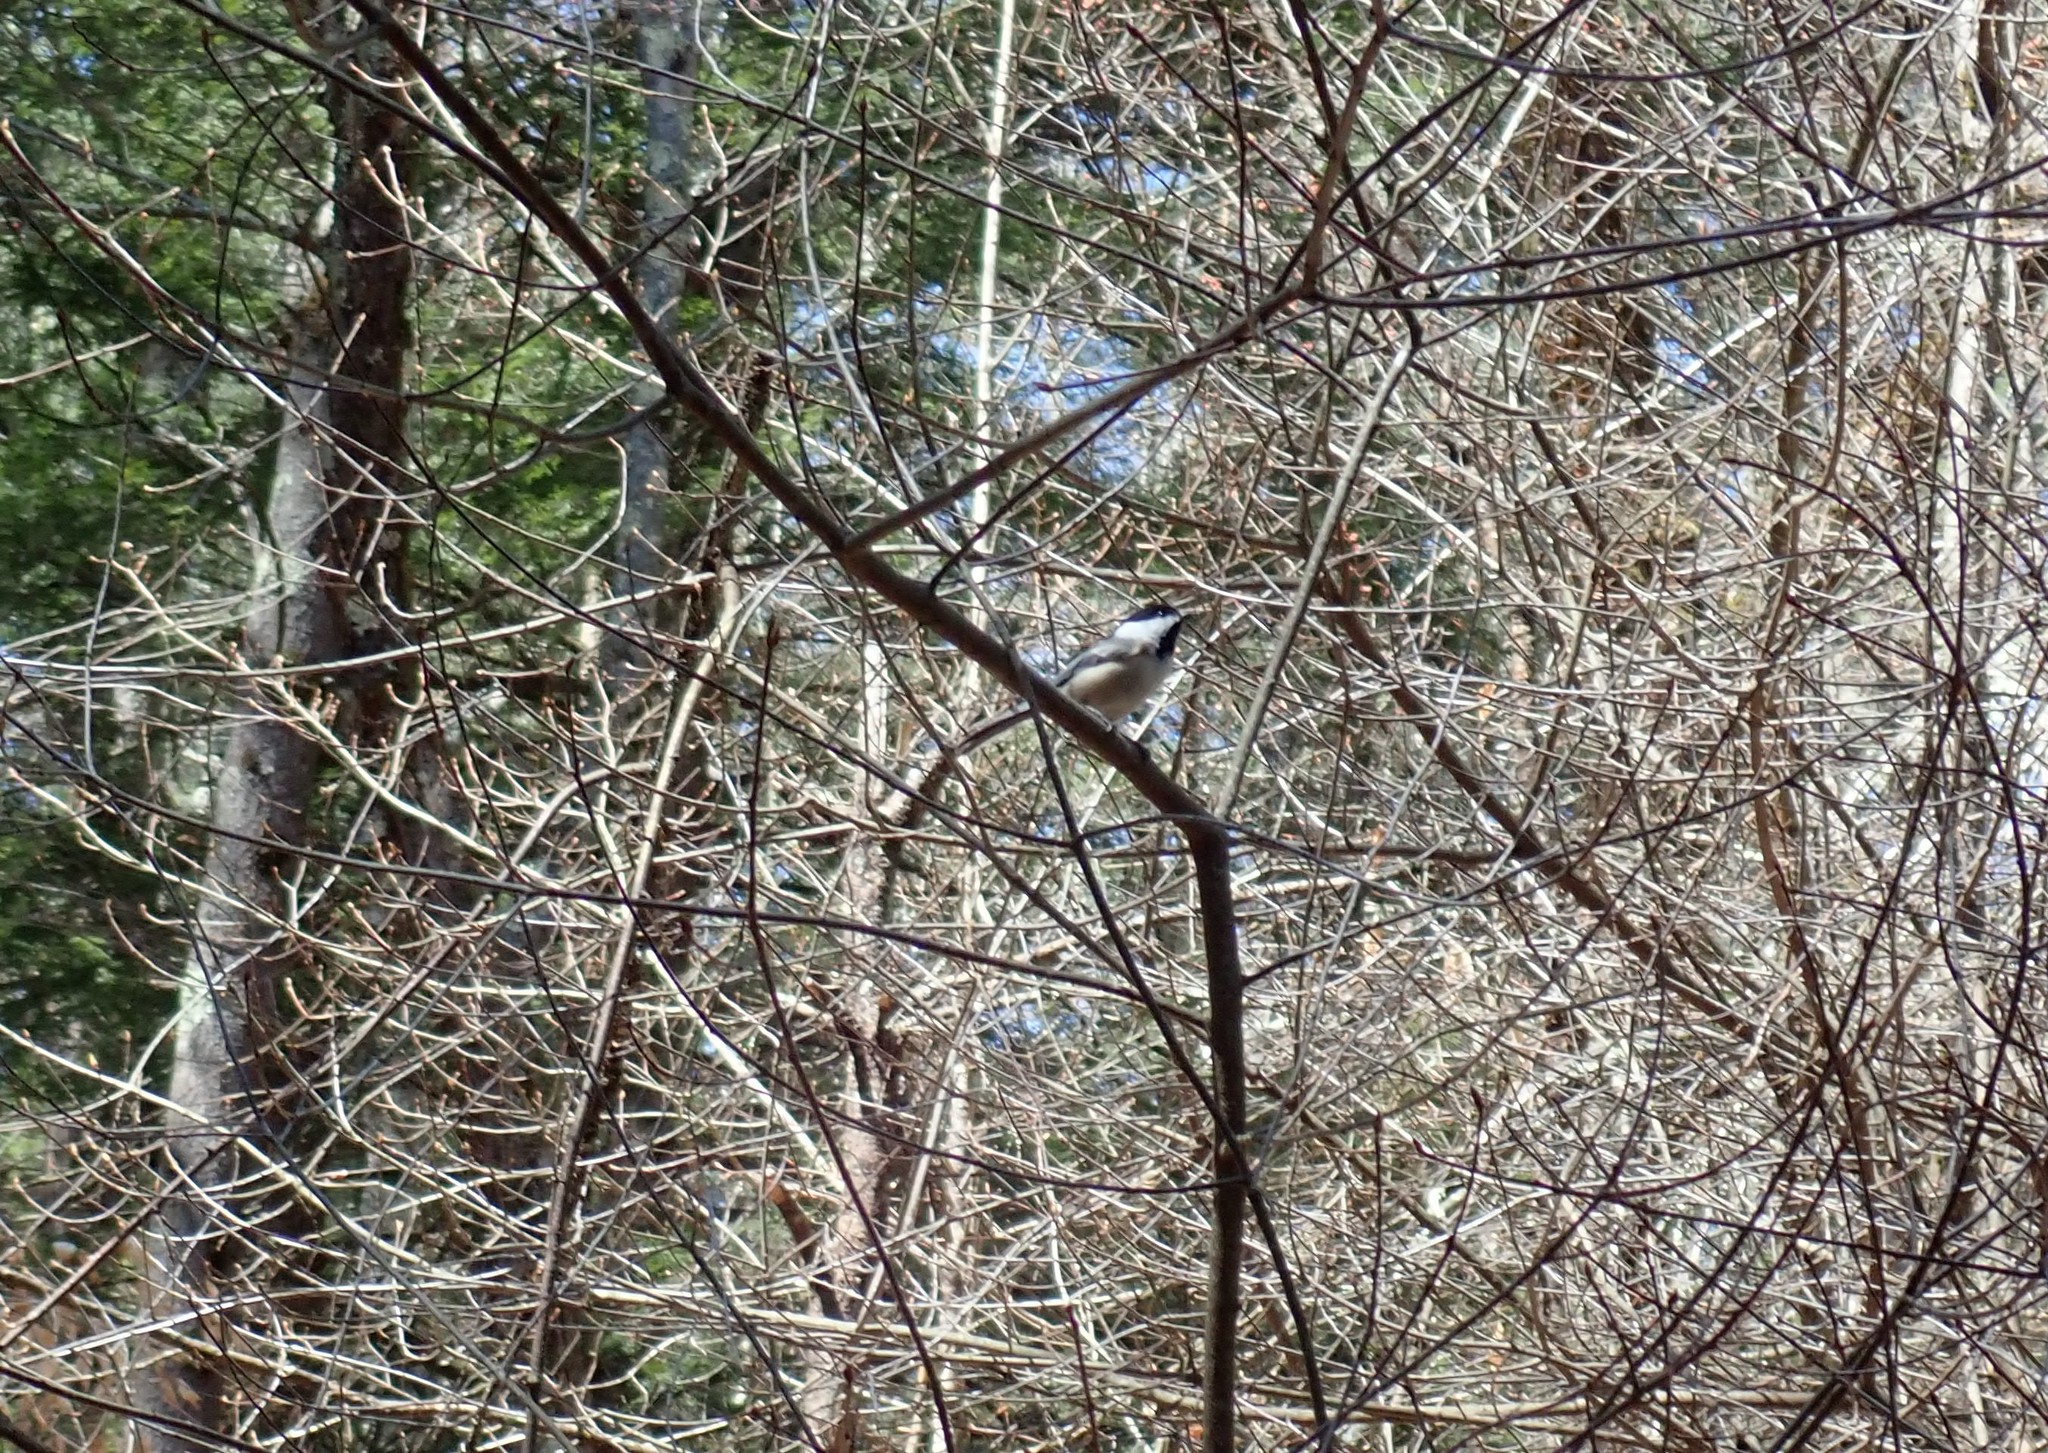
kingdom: Animalia
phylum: Chordata
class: Aves
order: Passeriformes
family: Paridae
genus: Poecile
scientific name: Poecile atricapillus
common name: Black-capped chickadee
